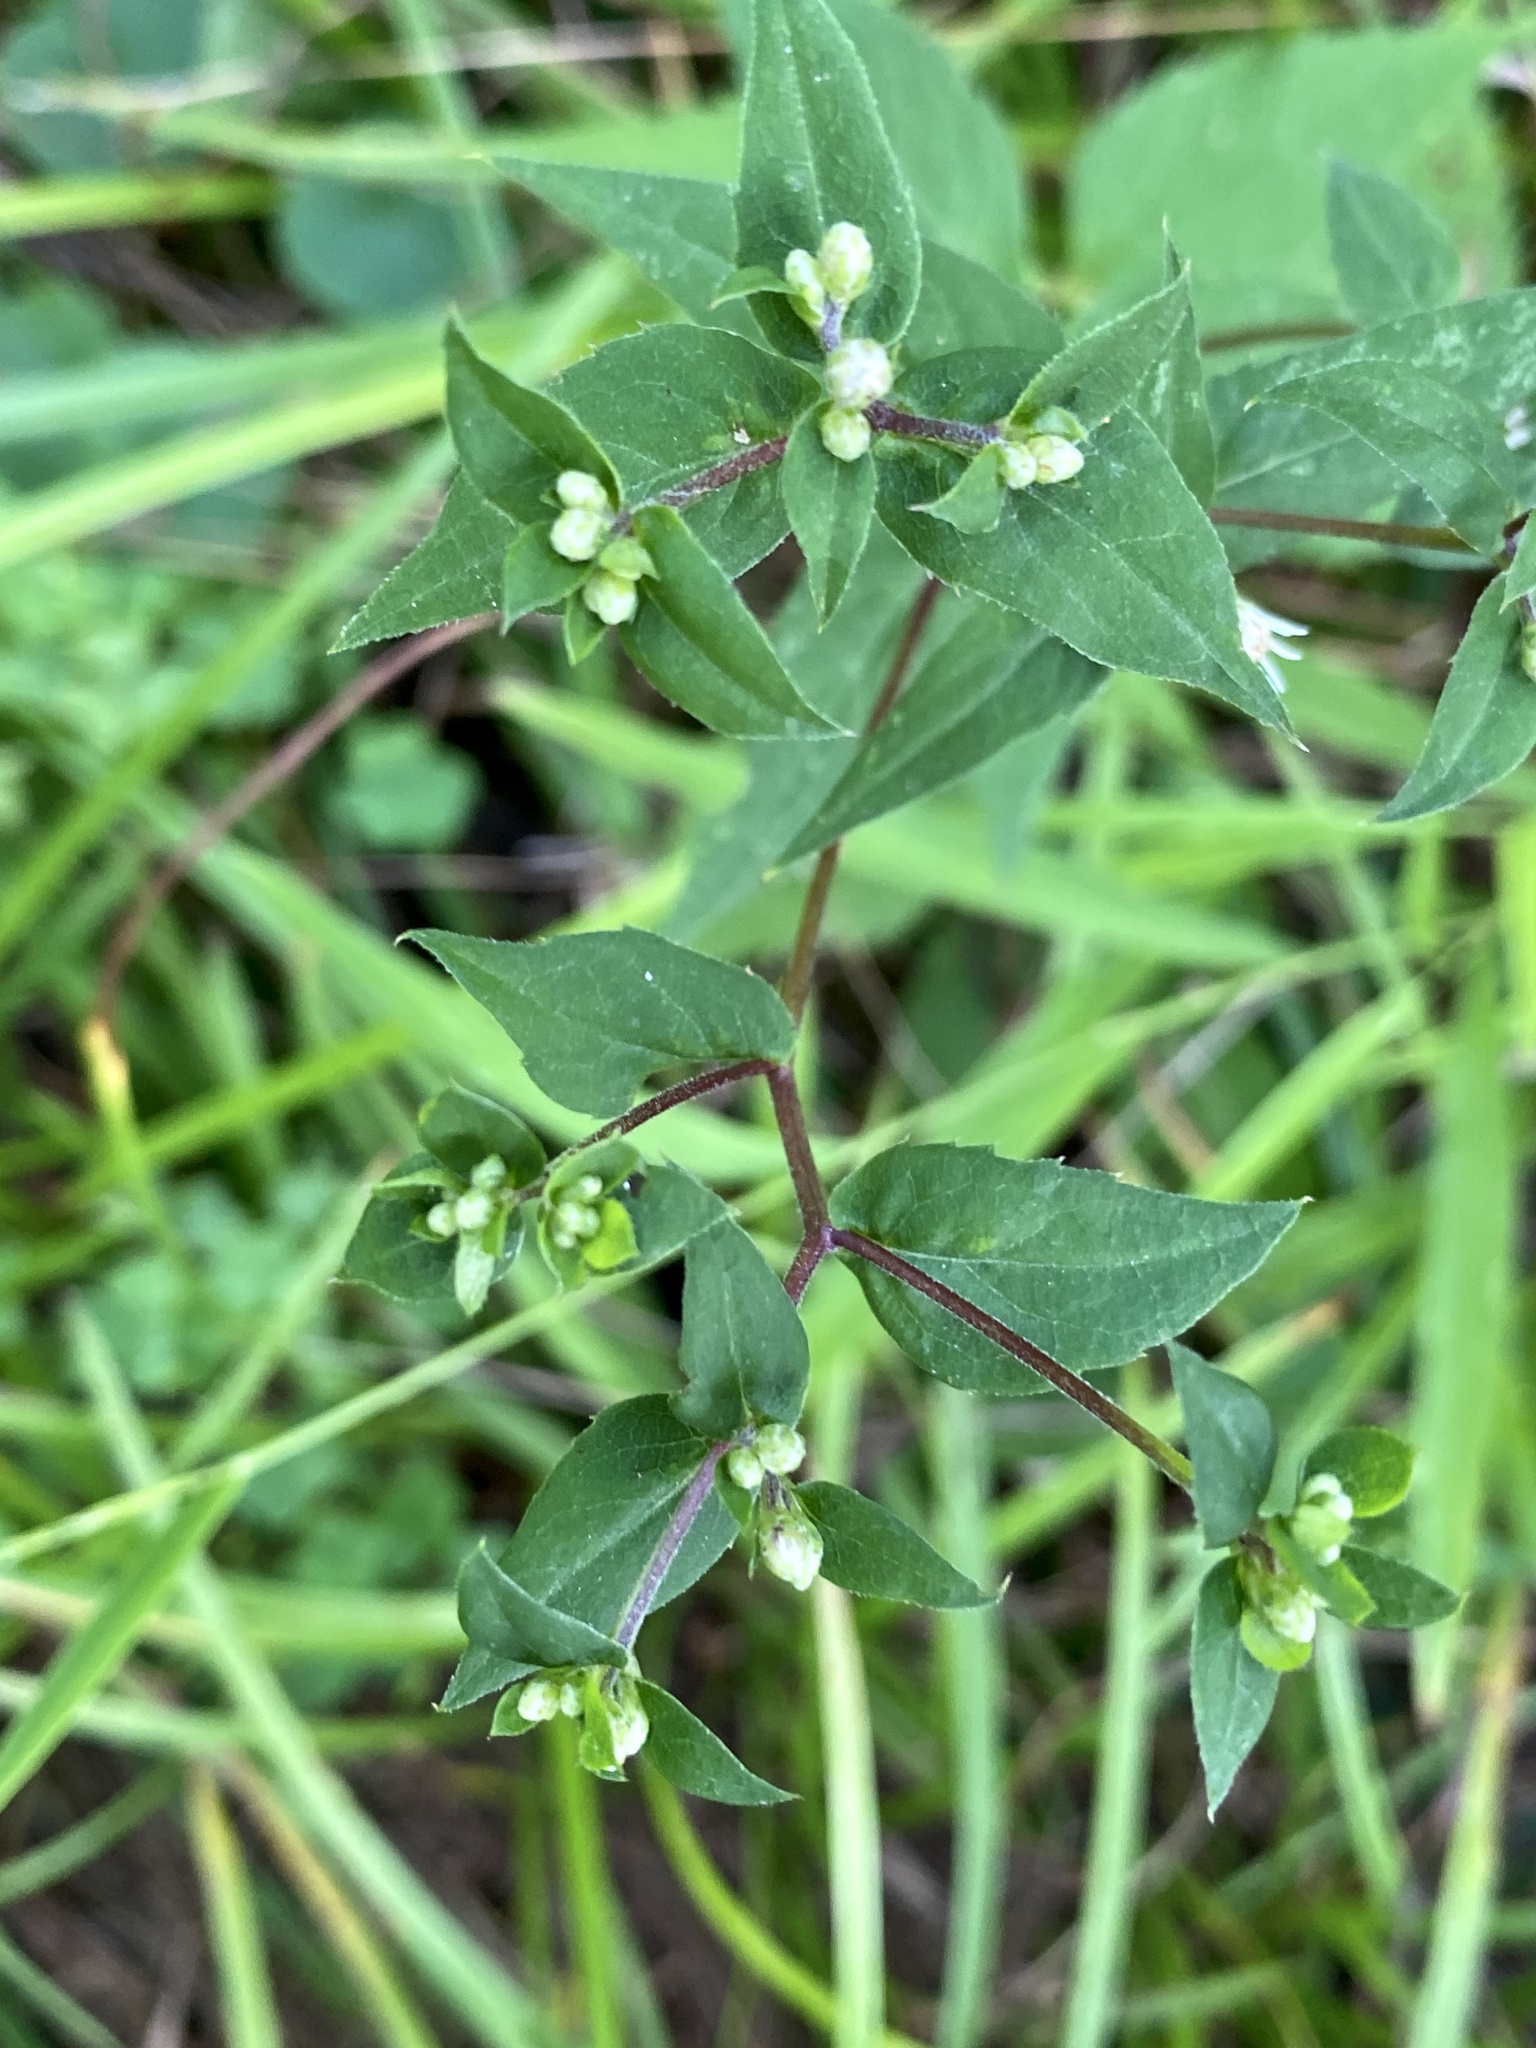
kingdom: Plantae
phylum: Tracheophyta
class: Magnoliopsida
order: Asterales
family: Asteraceae
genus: Eurybia
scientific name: Eurybia divaricata
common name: White wood aster
